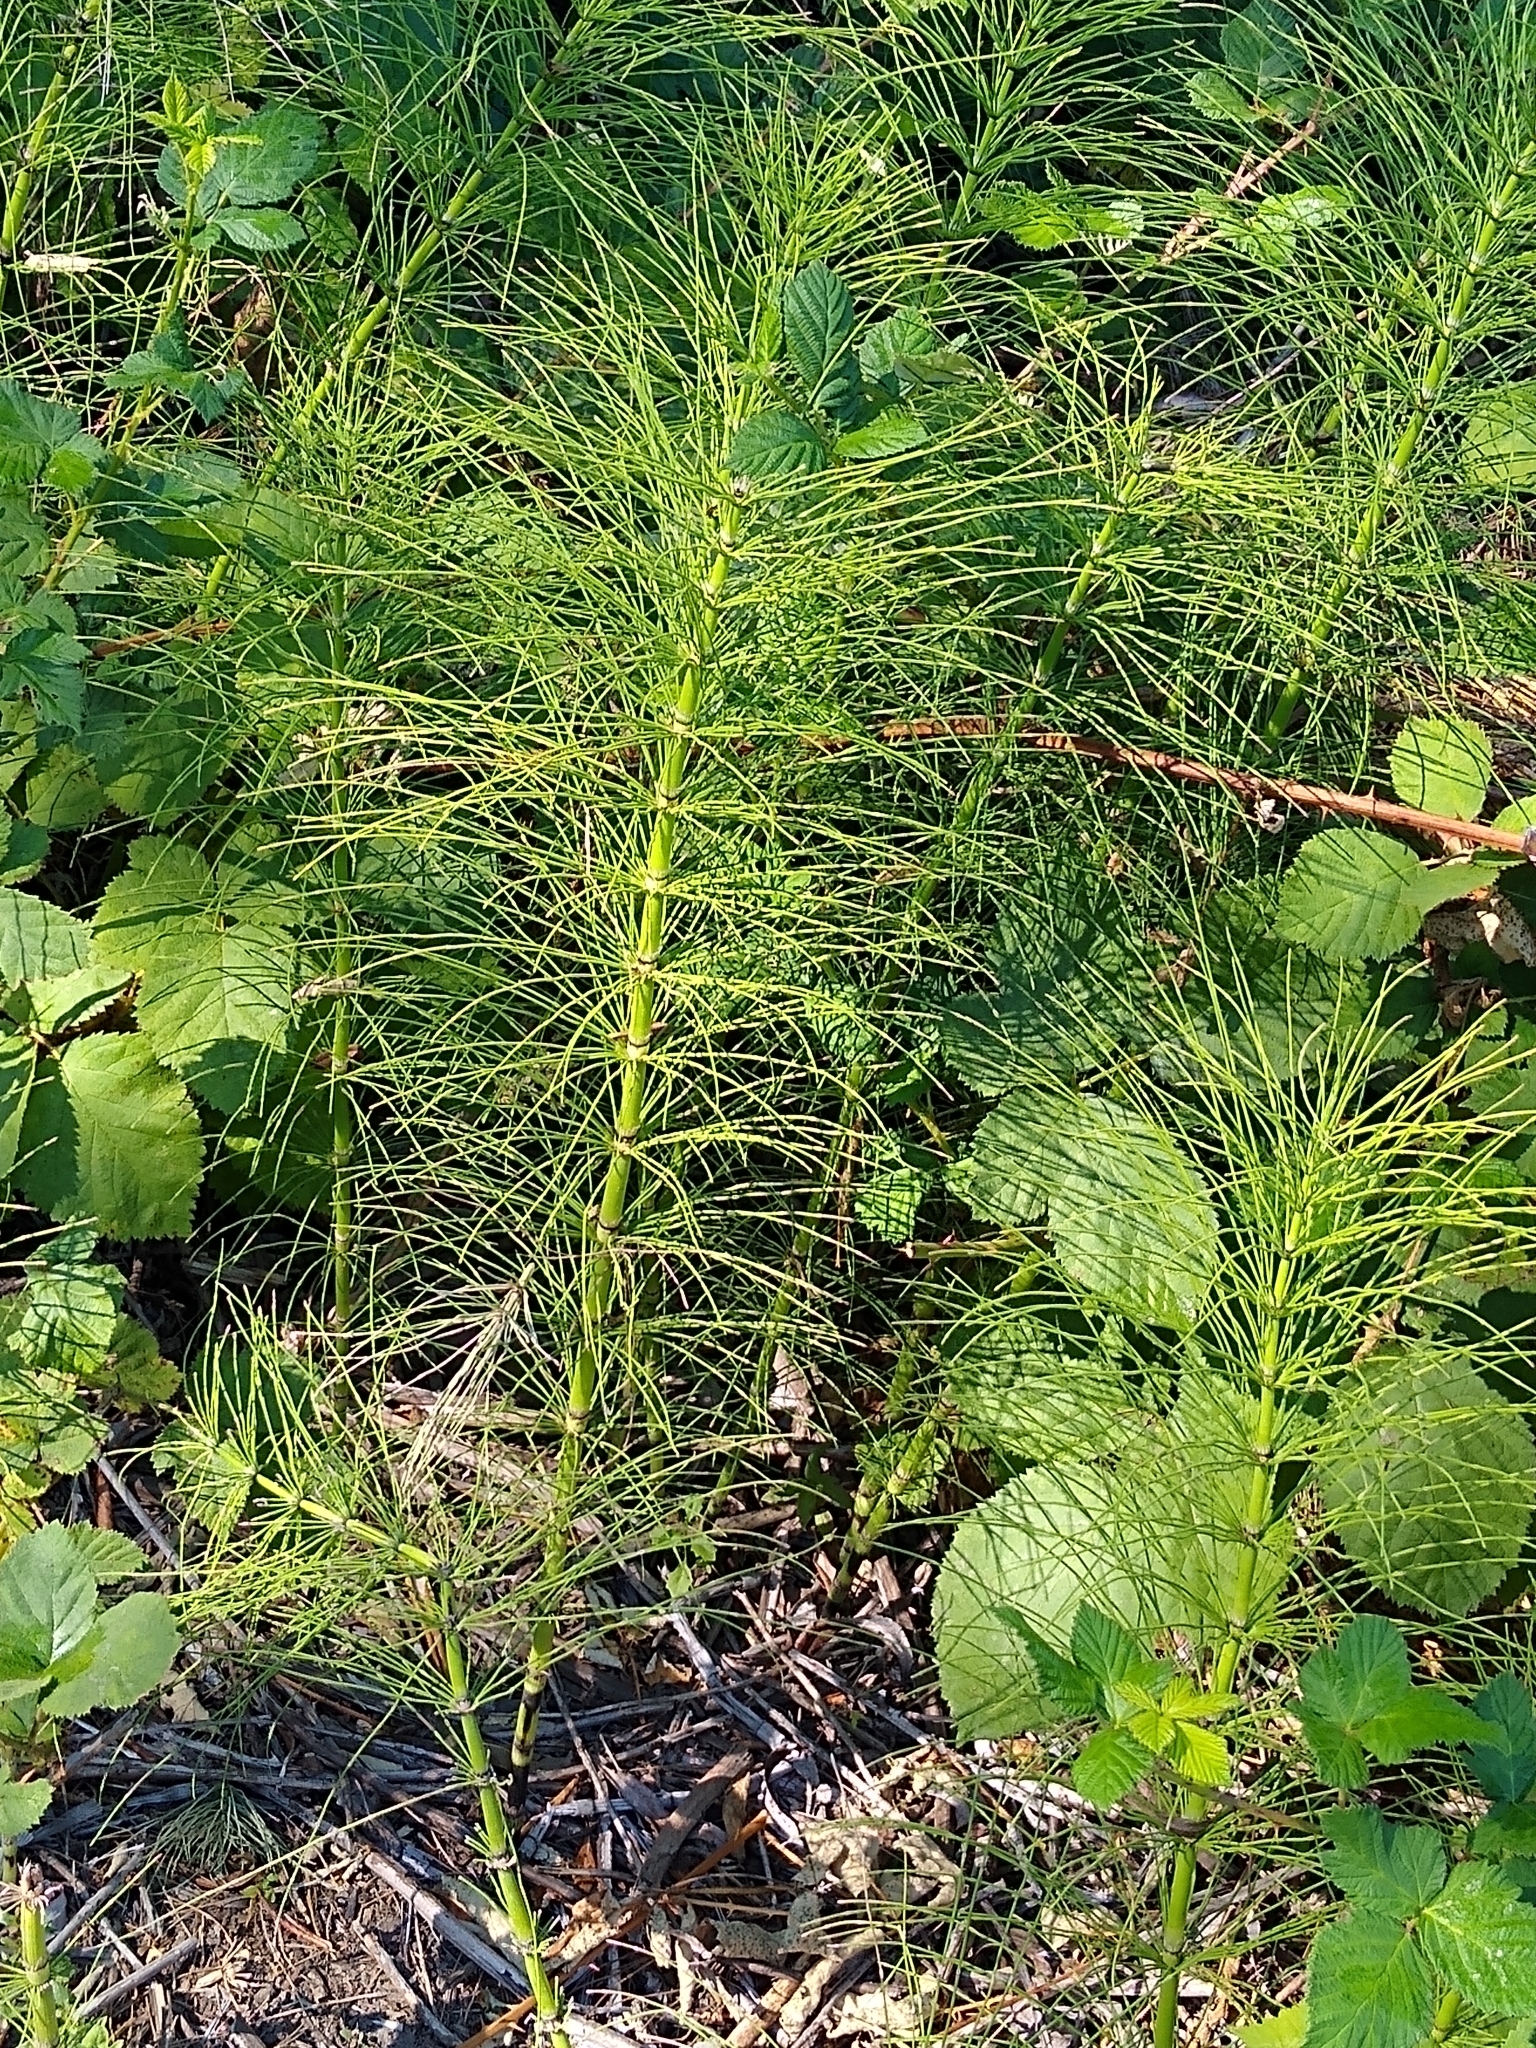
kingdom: Plantae
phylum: Tracheophyta
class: Polypodiopsida
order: Equisetales
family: Equisetaceae
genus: Equisetum
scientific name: Equisetum braunii
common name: Braun's horsetail
